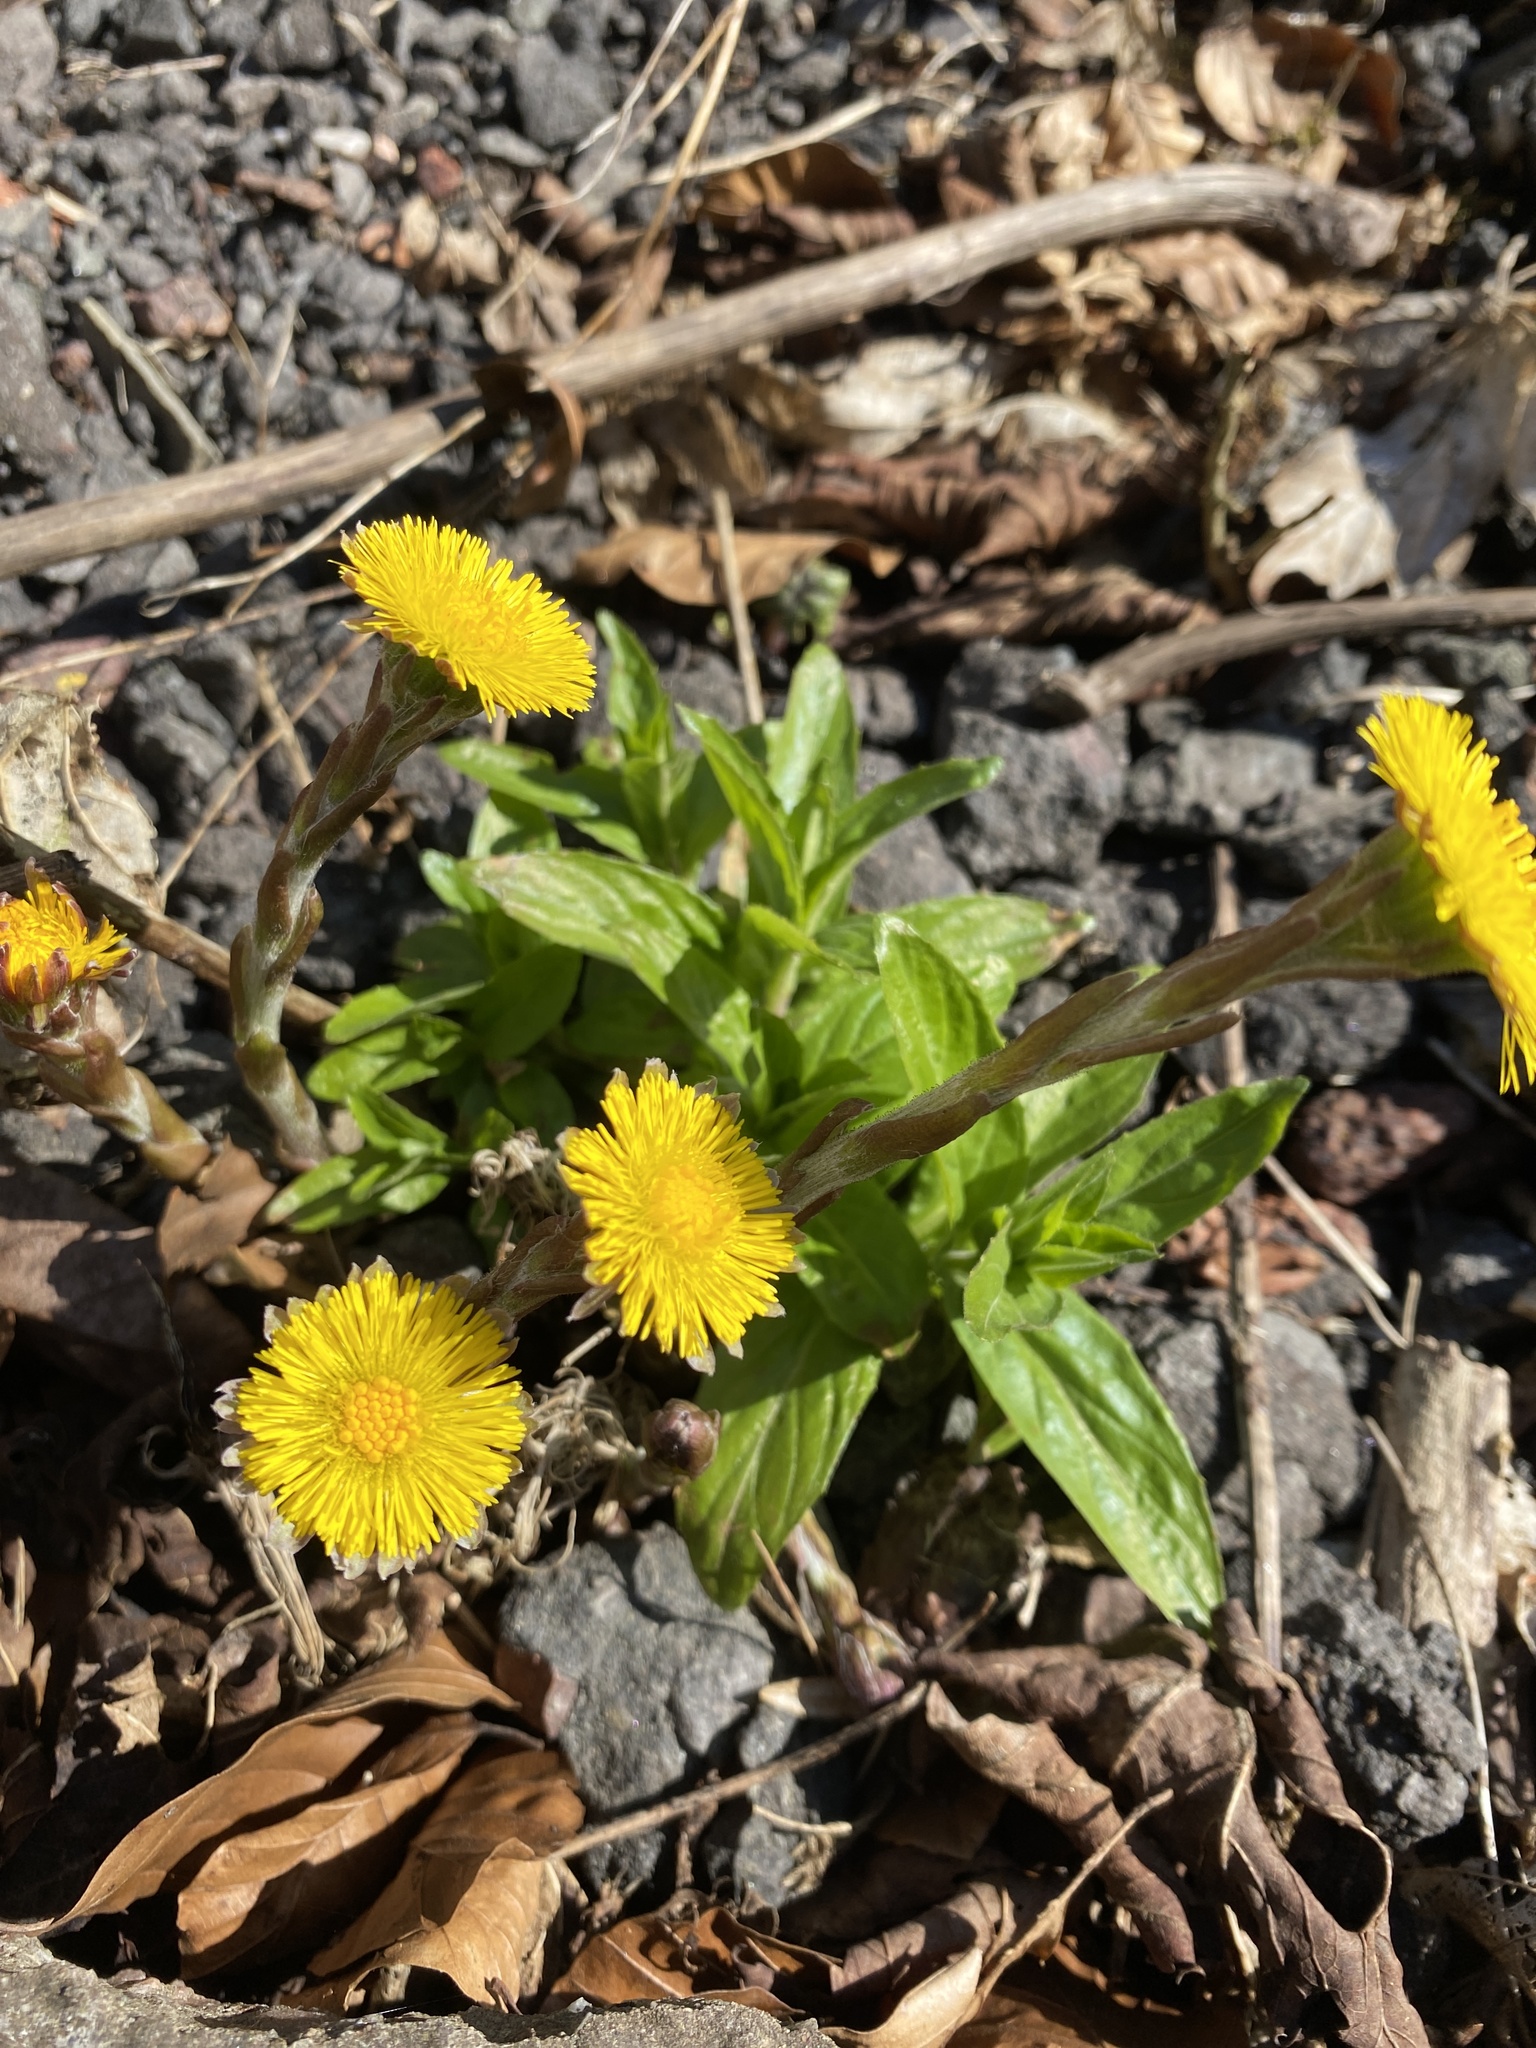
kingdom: Plantae
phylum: Tracheophyta
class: Magnoliopsida
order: Asterales
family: Asteraceae
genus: Tussilago
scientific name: Tussilago farfara
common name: Coltsfoot
